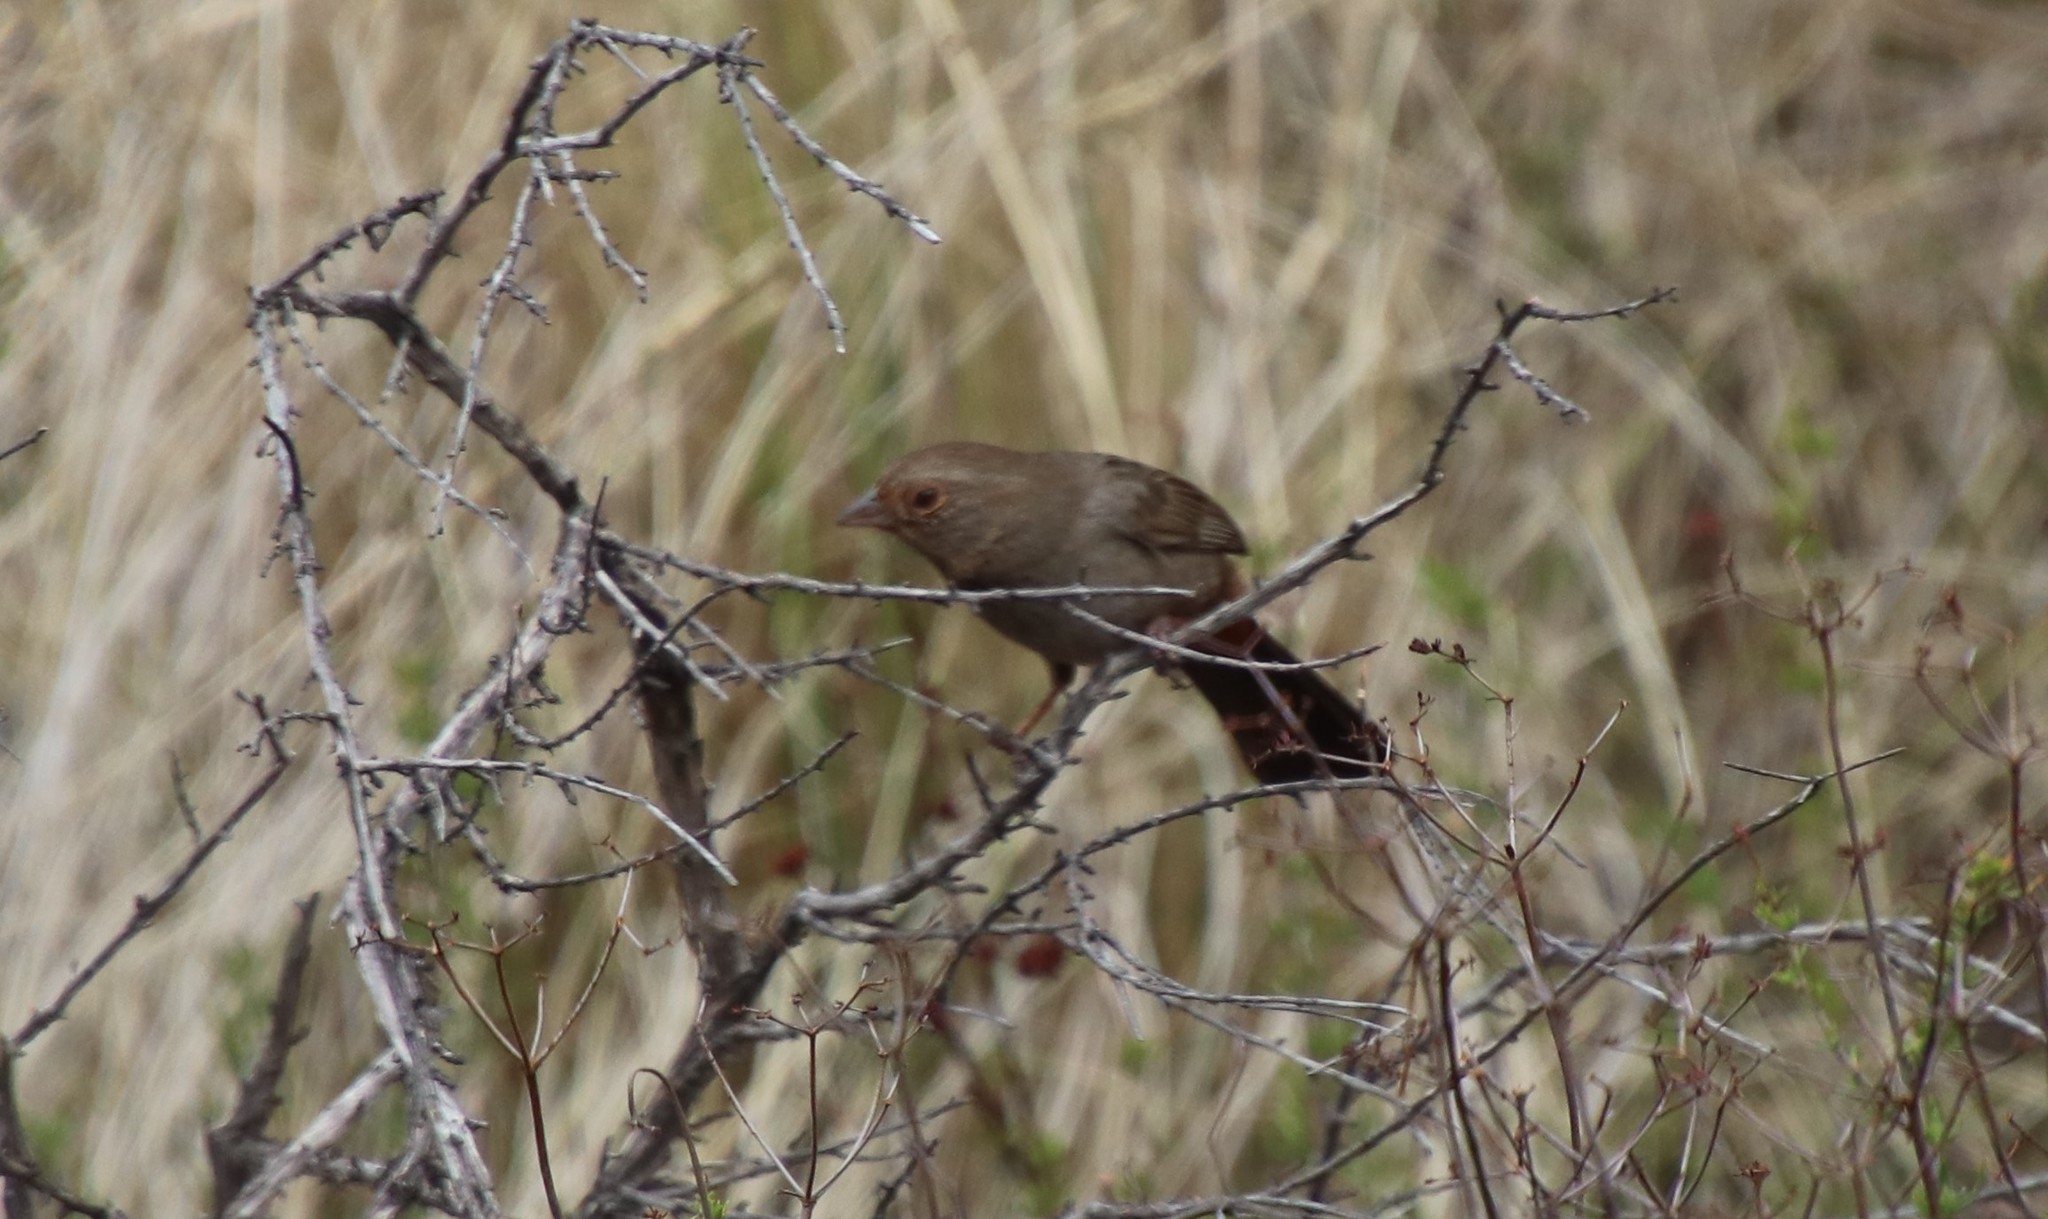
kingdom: Animalia
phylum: Chordata
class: Aves
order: Passeriformes
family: Passerellidae
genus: Melozone
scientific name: Melozone crissalis
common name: California towhee
